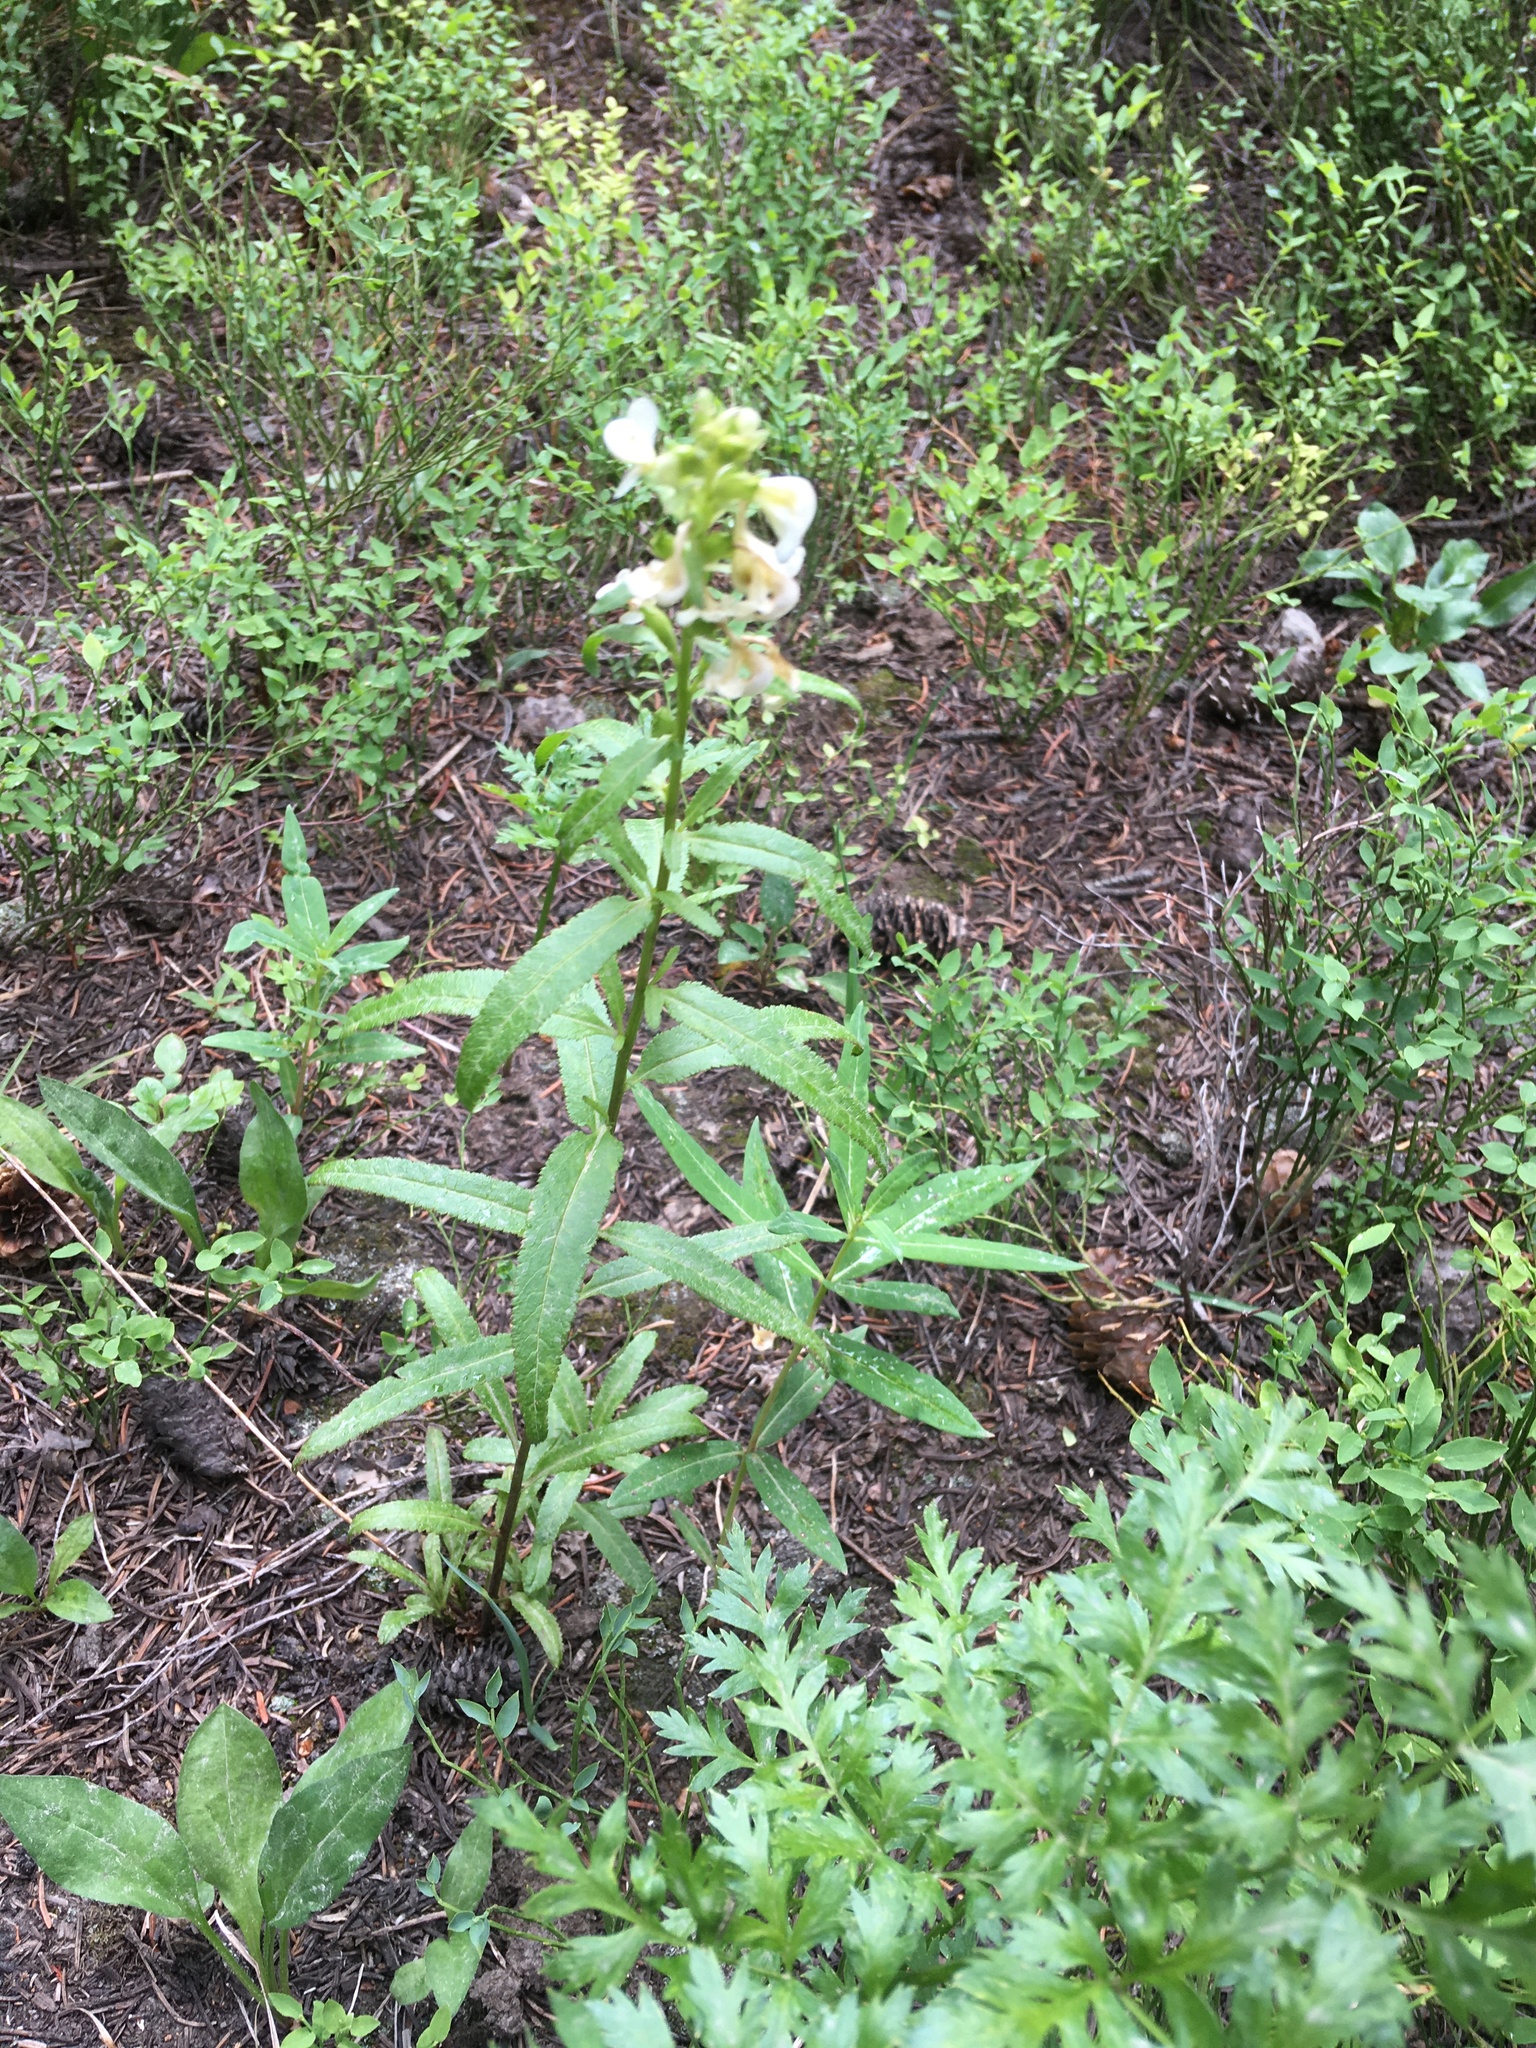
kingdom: Plantae
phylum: Tracheophyta
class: Magnoliopsida
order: Lamiales
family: Orobanchaceae
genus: Pedicularis
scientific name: Pedicularis racemosa
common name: Leafy lousewort
